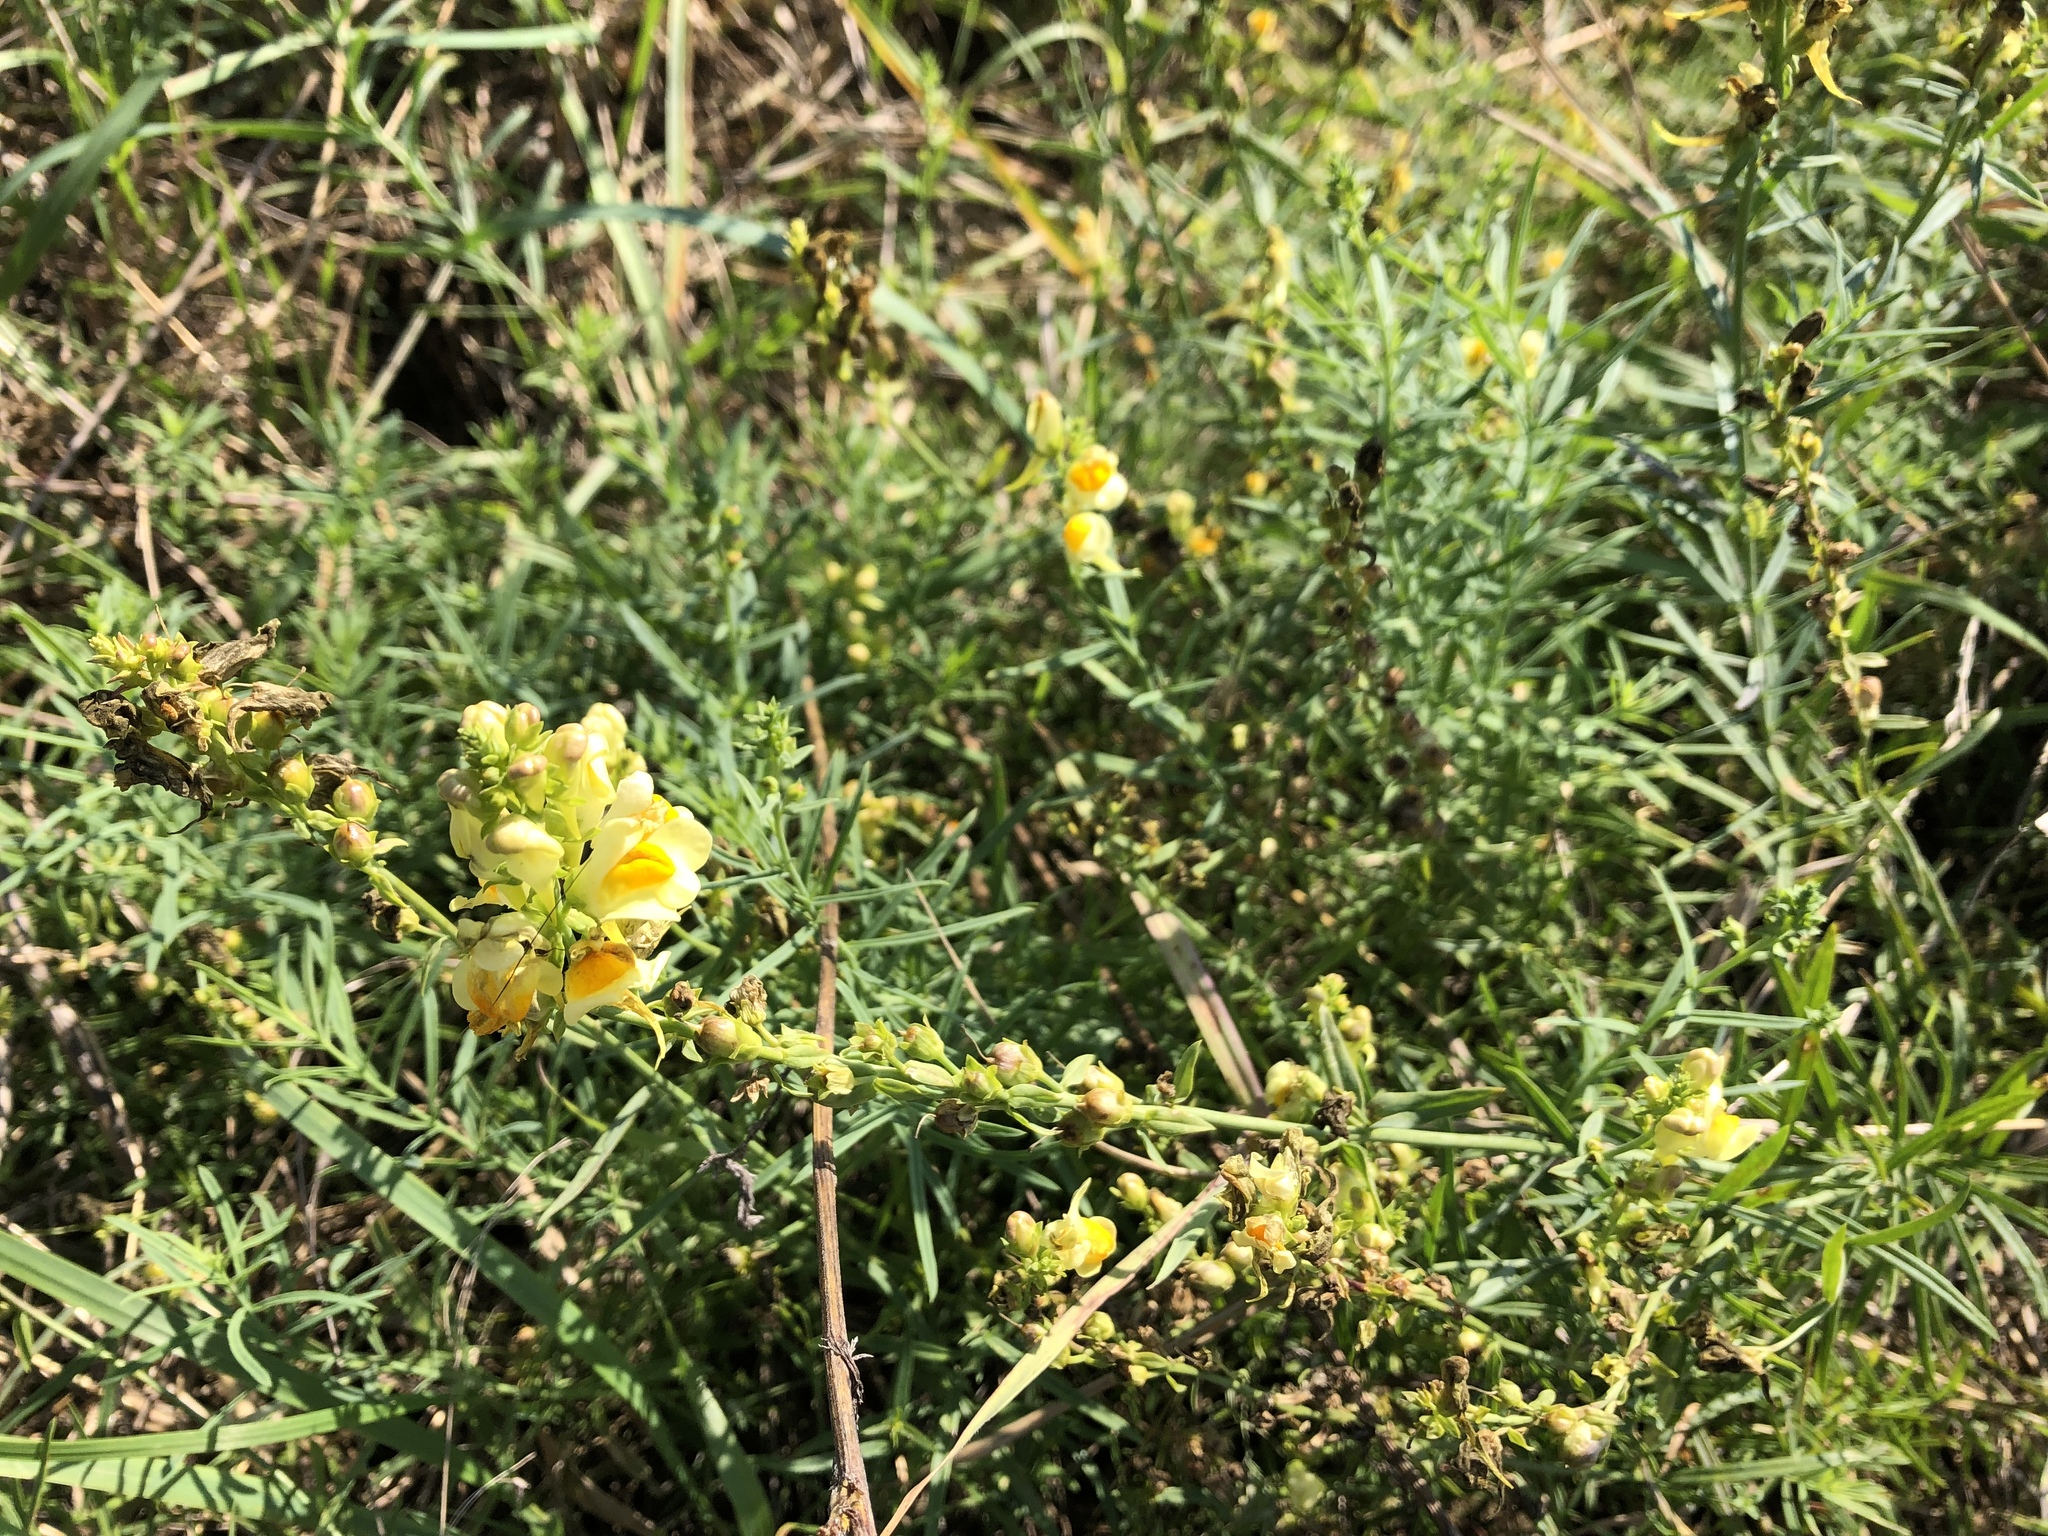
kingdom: Plantae
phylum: Tracheophyta
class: Magnoliopsida
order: Lamiales
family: Plantaginaceae
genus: Linaria
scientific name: Linaria vulgaris
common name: Butter and eggs
